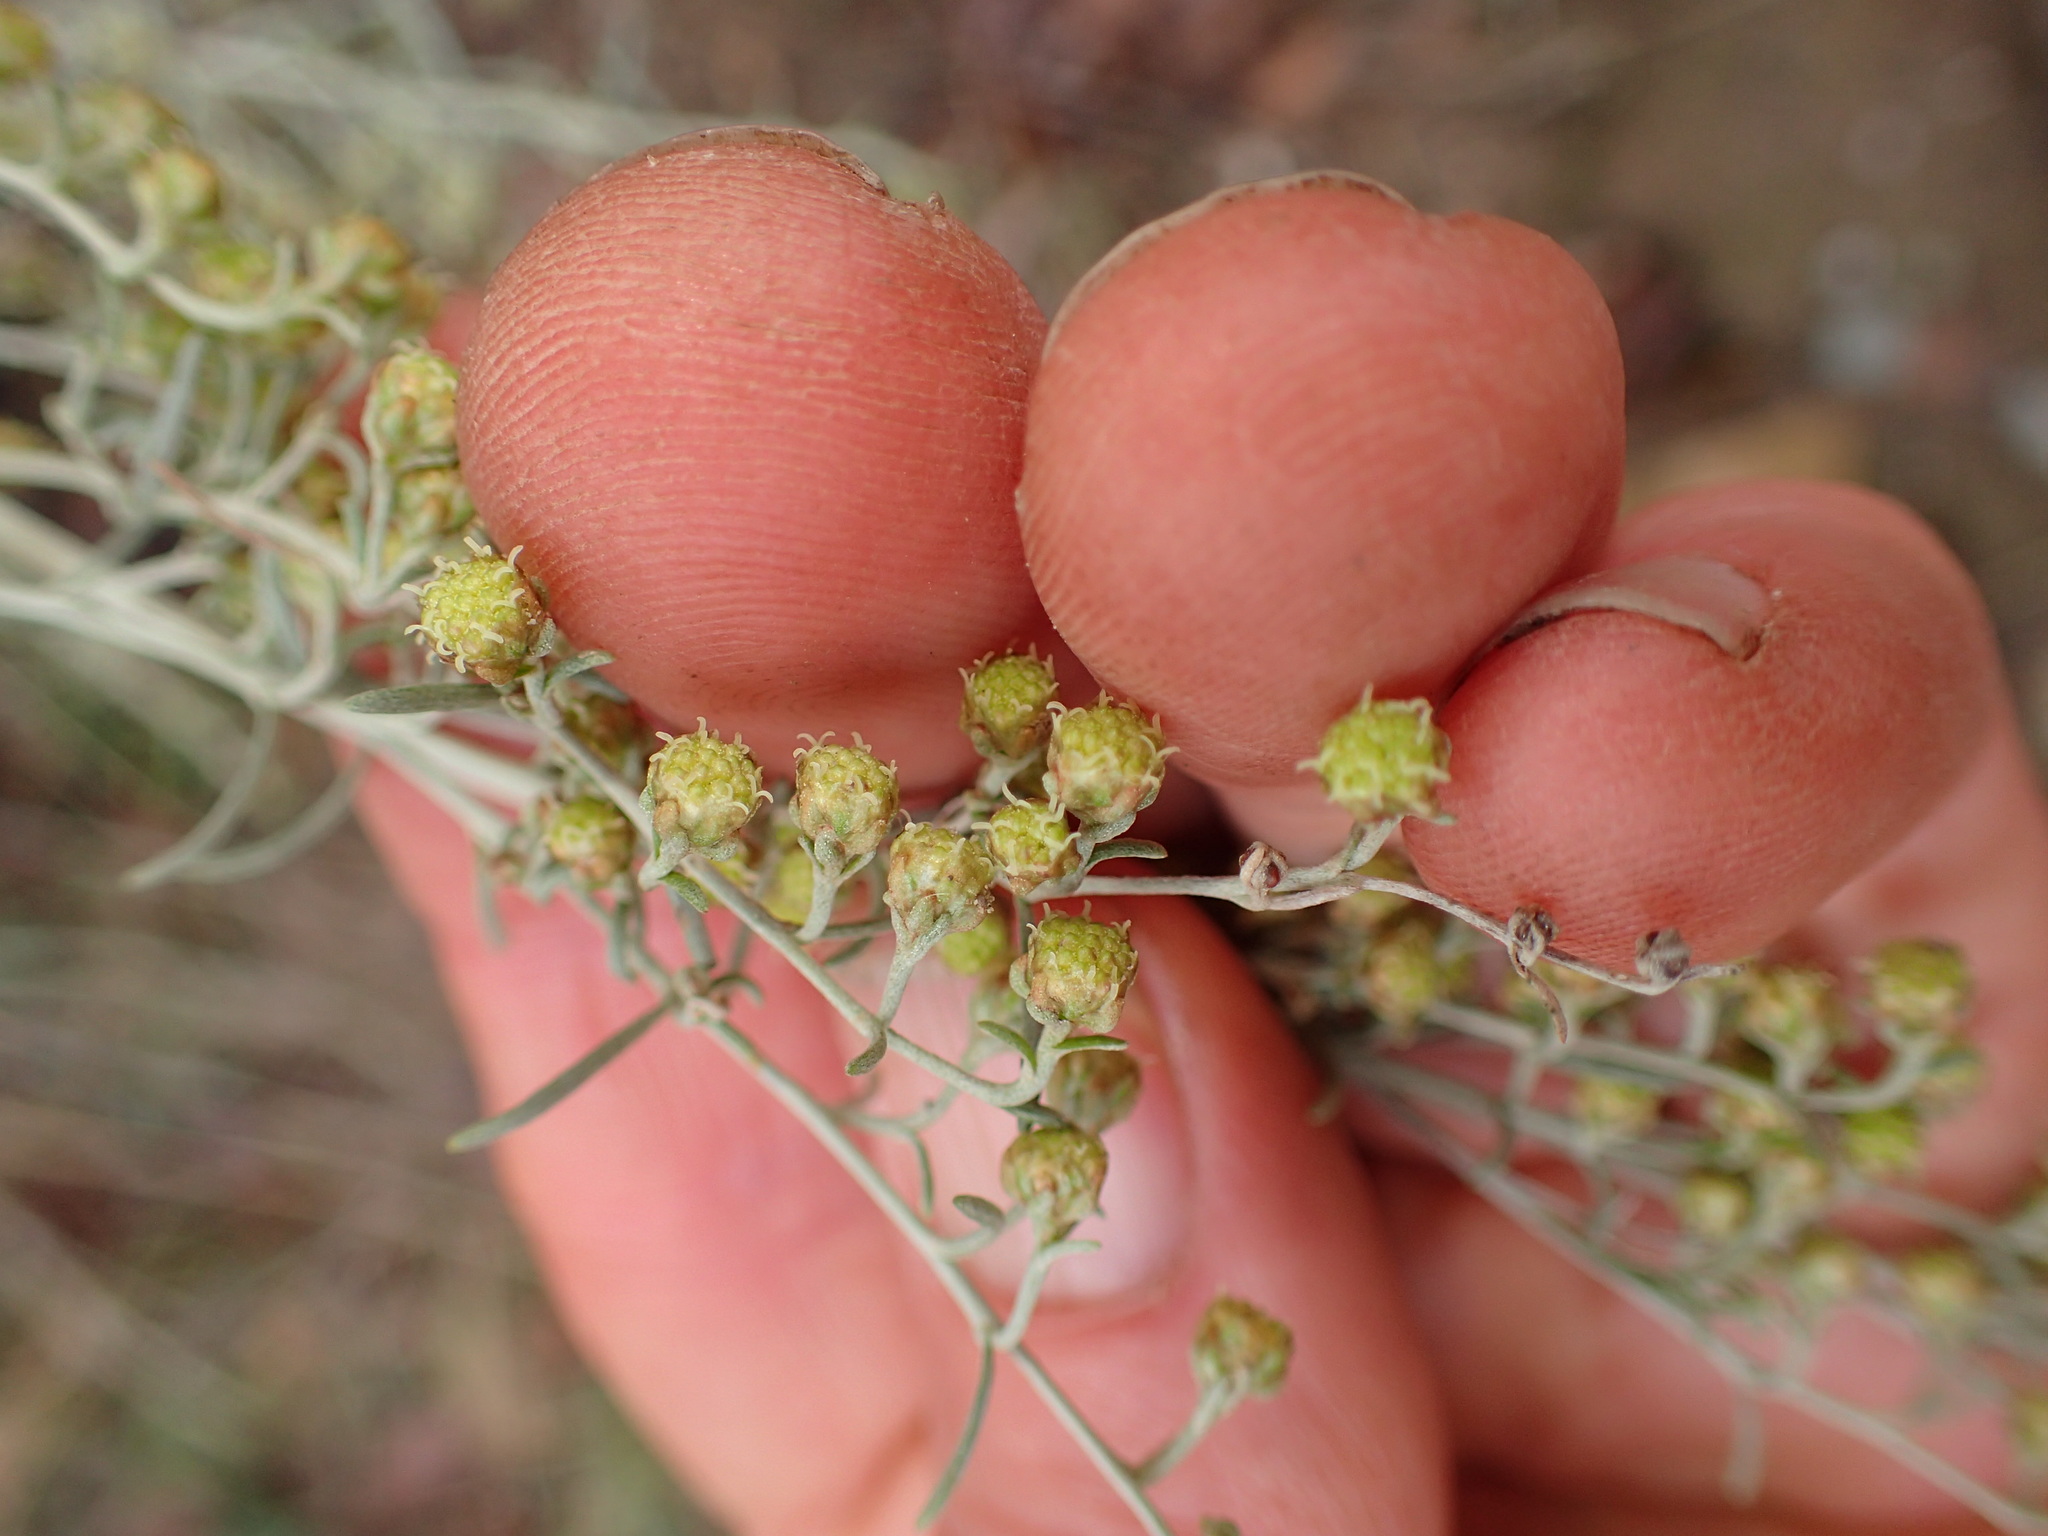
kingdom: Plantae
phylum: Tracheophyta
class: Magnoliopsida
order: Asterales
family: Asteraceae
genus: Artemisia
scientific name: Artemisia californica
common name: California sagebrush
